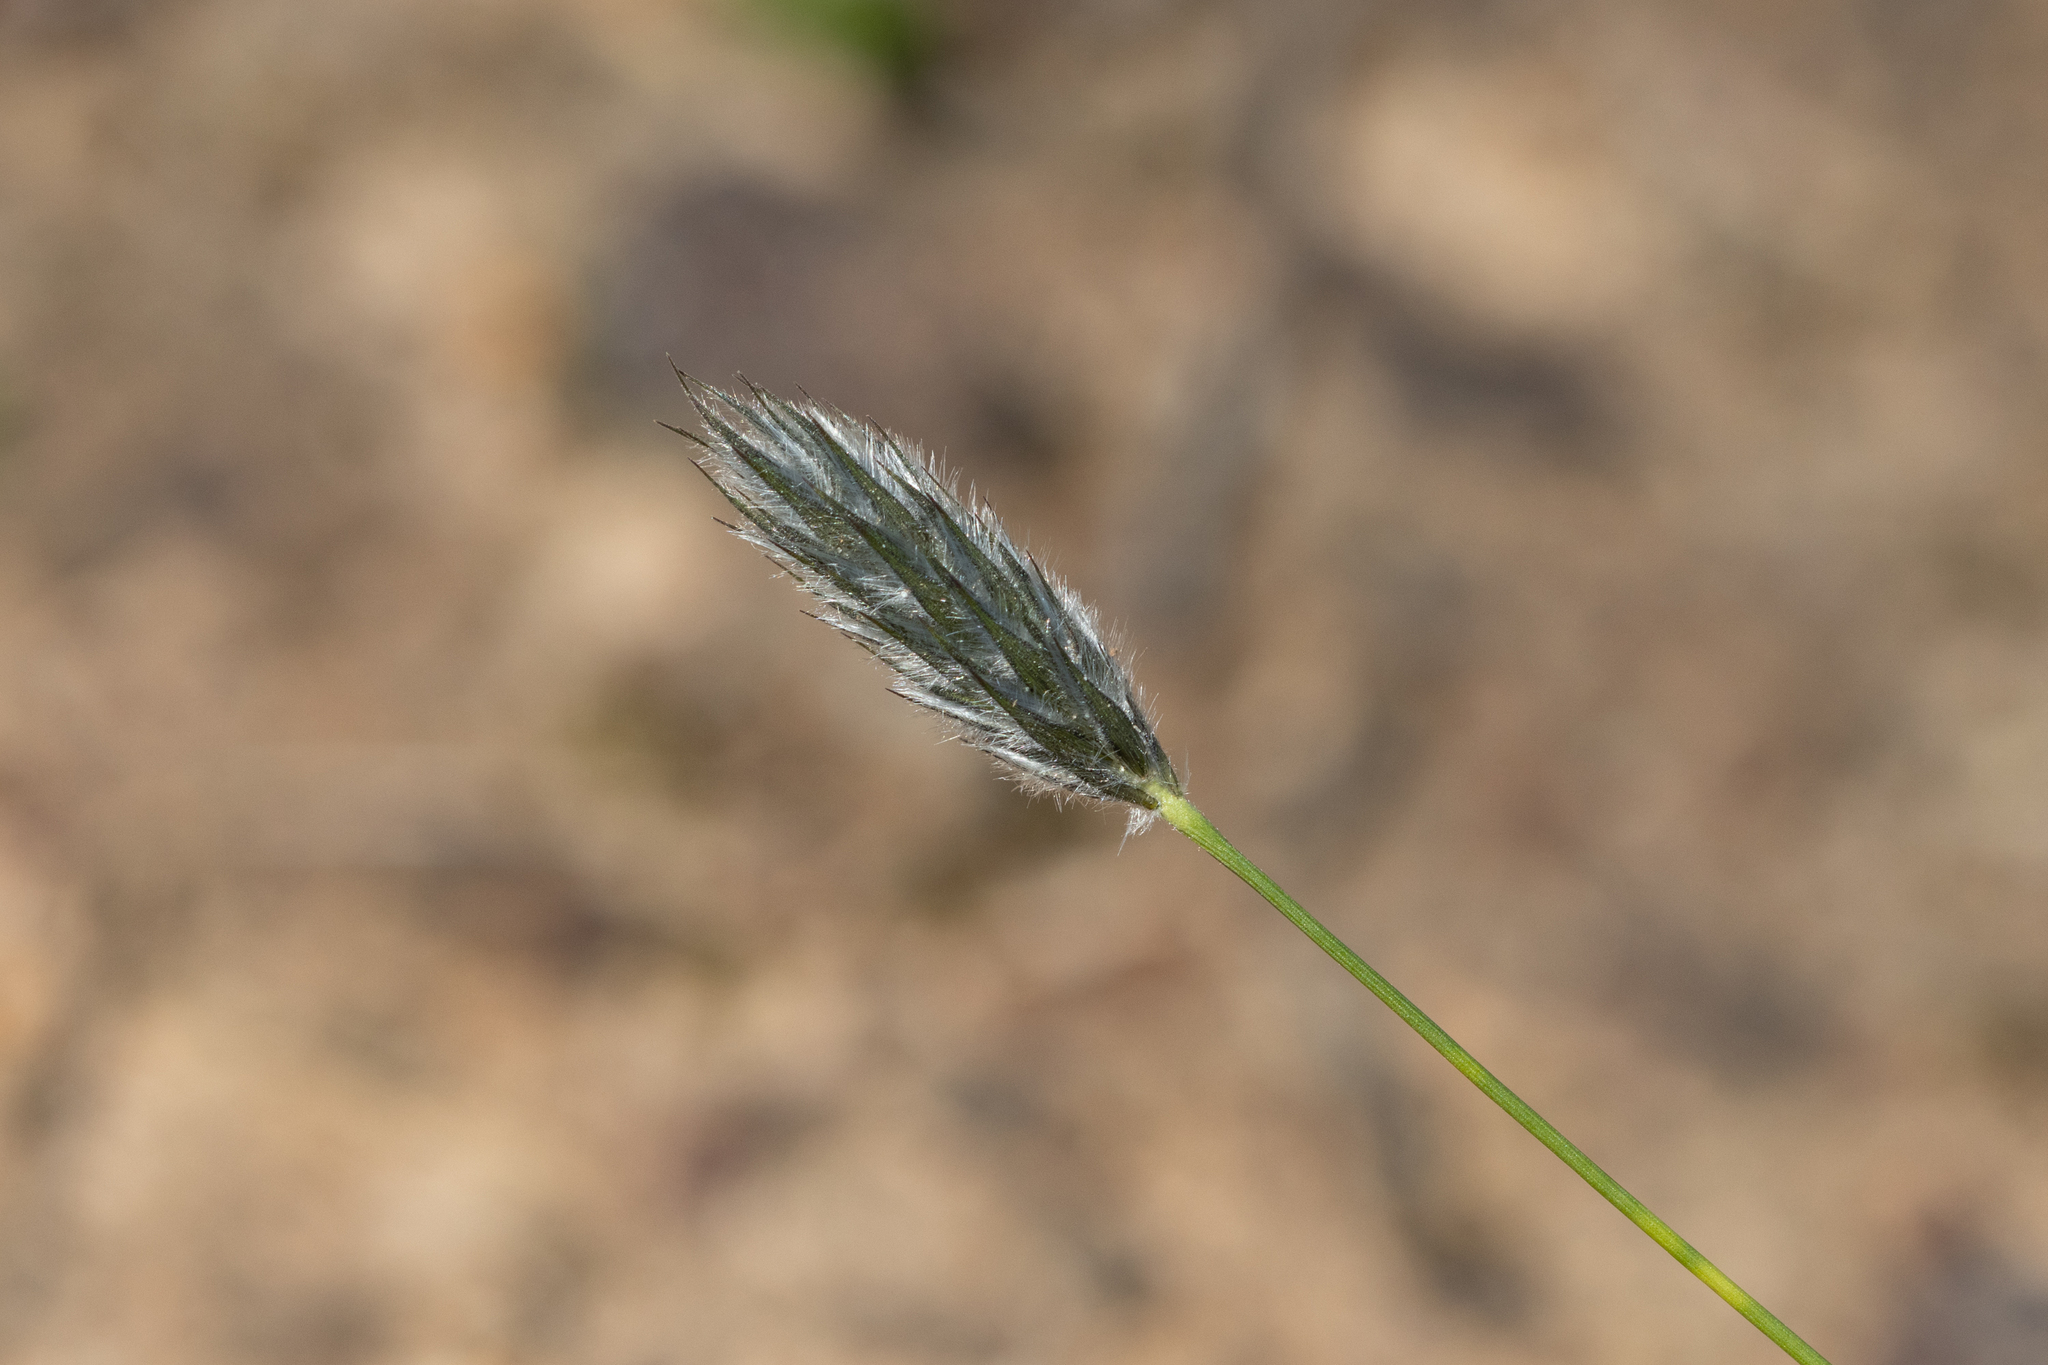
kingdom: Plantae
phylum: Tracheophyta
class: Liliopsida
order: Poales
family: Poaceae
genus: Neurachne
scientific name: Neurachne alopecuroidea
